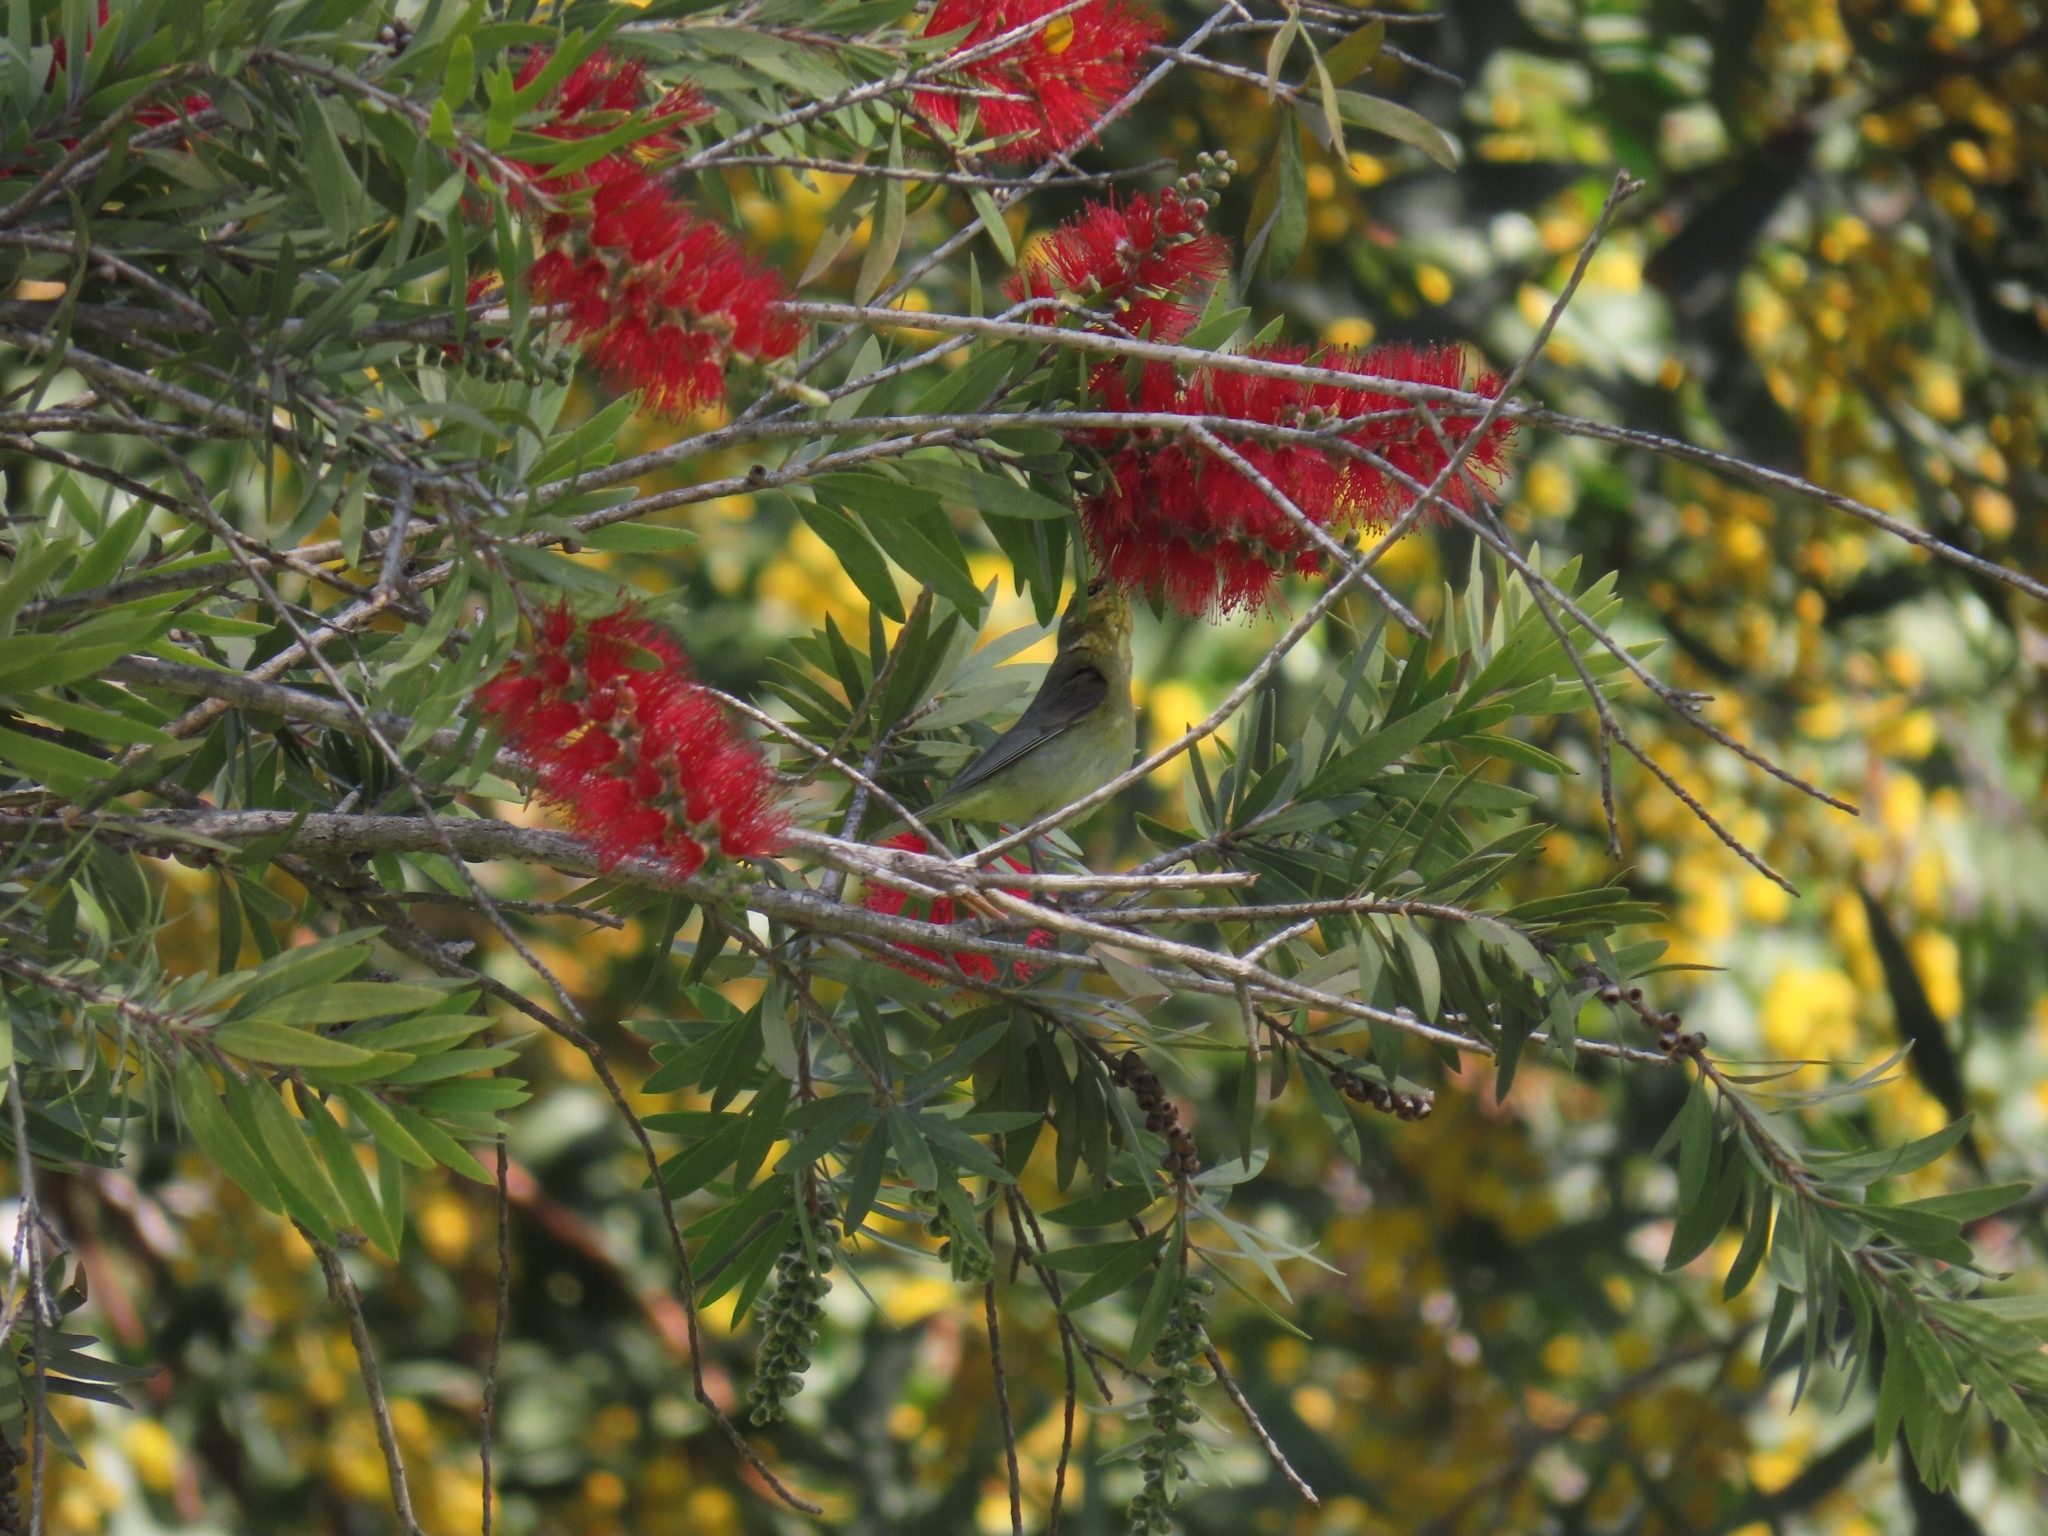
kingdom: Animalia
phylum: Chordata
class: Aves
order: Passeriformes
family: Parulidae
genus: Leiothlypis
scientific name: Leiothlypis celata
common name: Orange-crowned warbler
